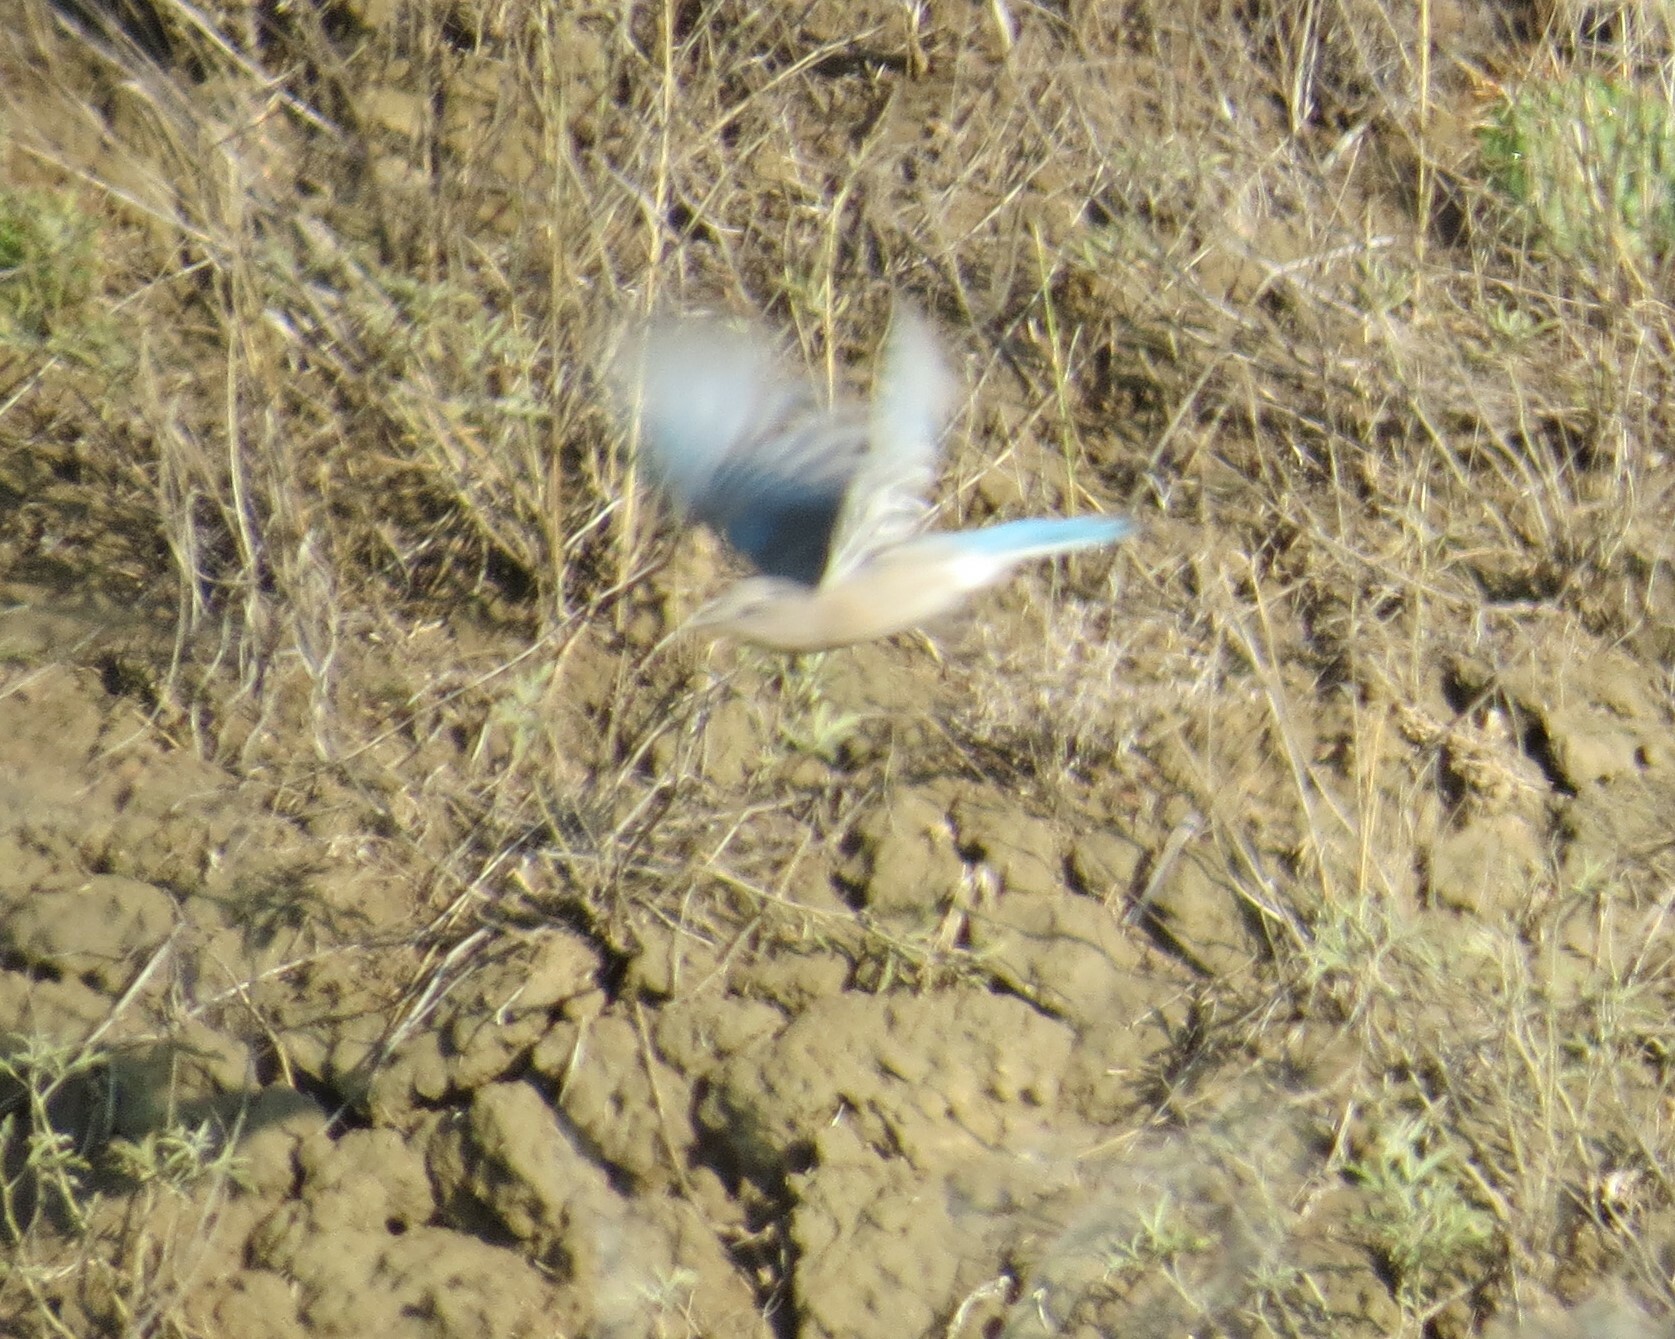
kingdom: Animalia
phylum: Chordata
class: Aves
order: Passeriformes
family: Turdidae
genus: Sialia
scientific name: Sialia currucoides
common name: Mountain bluebird
